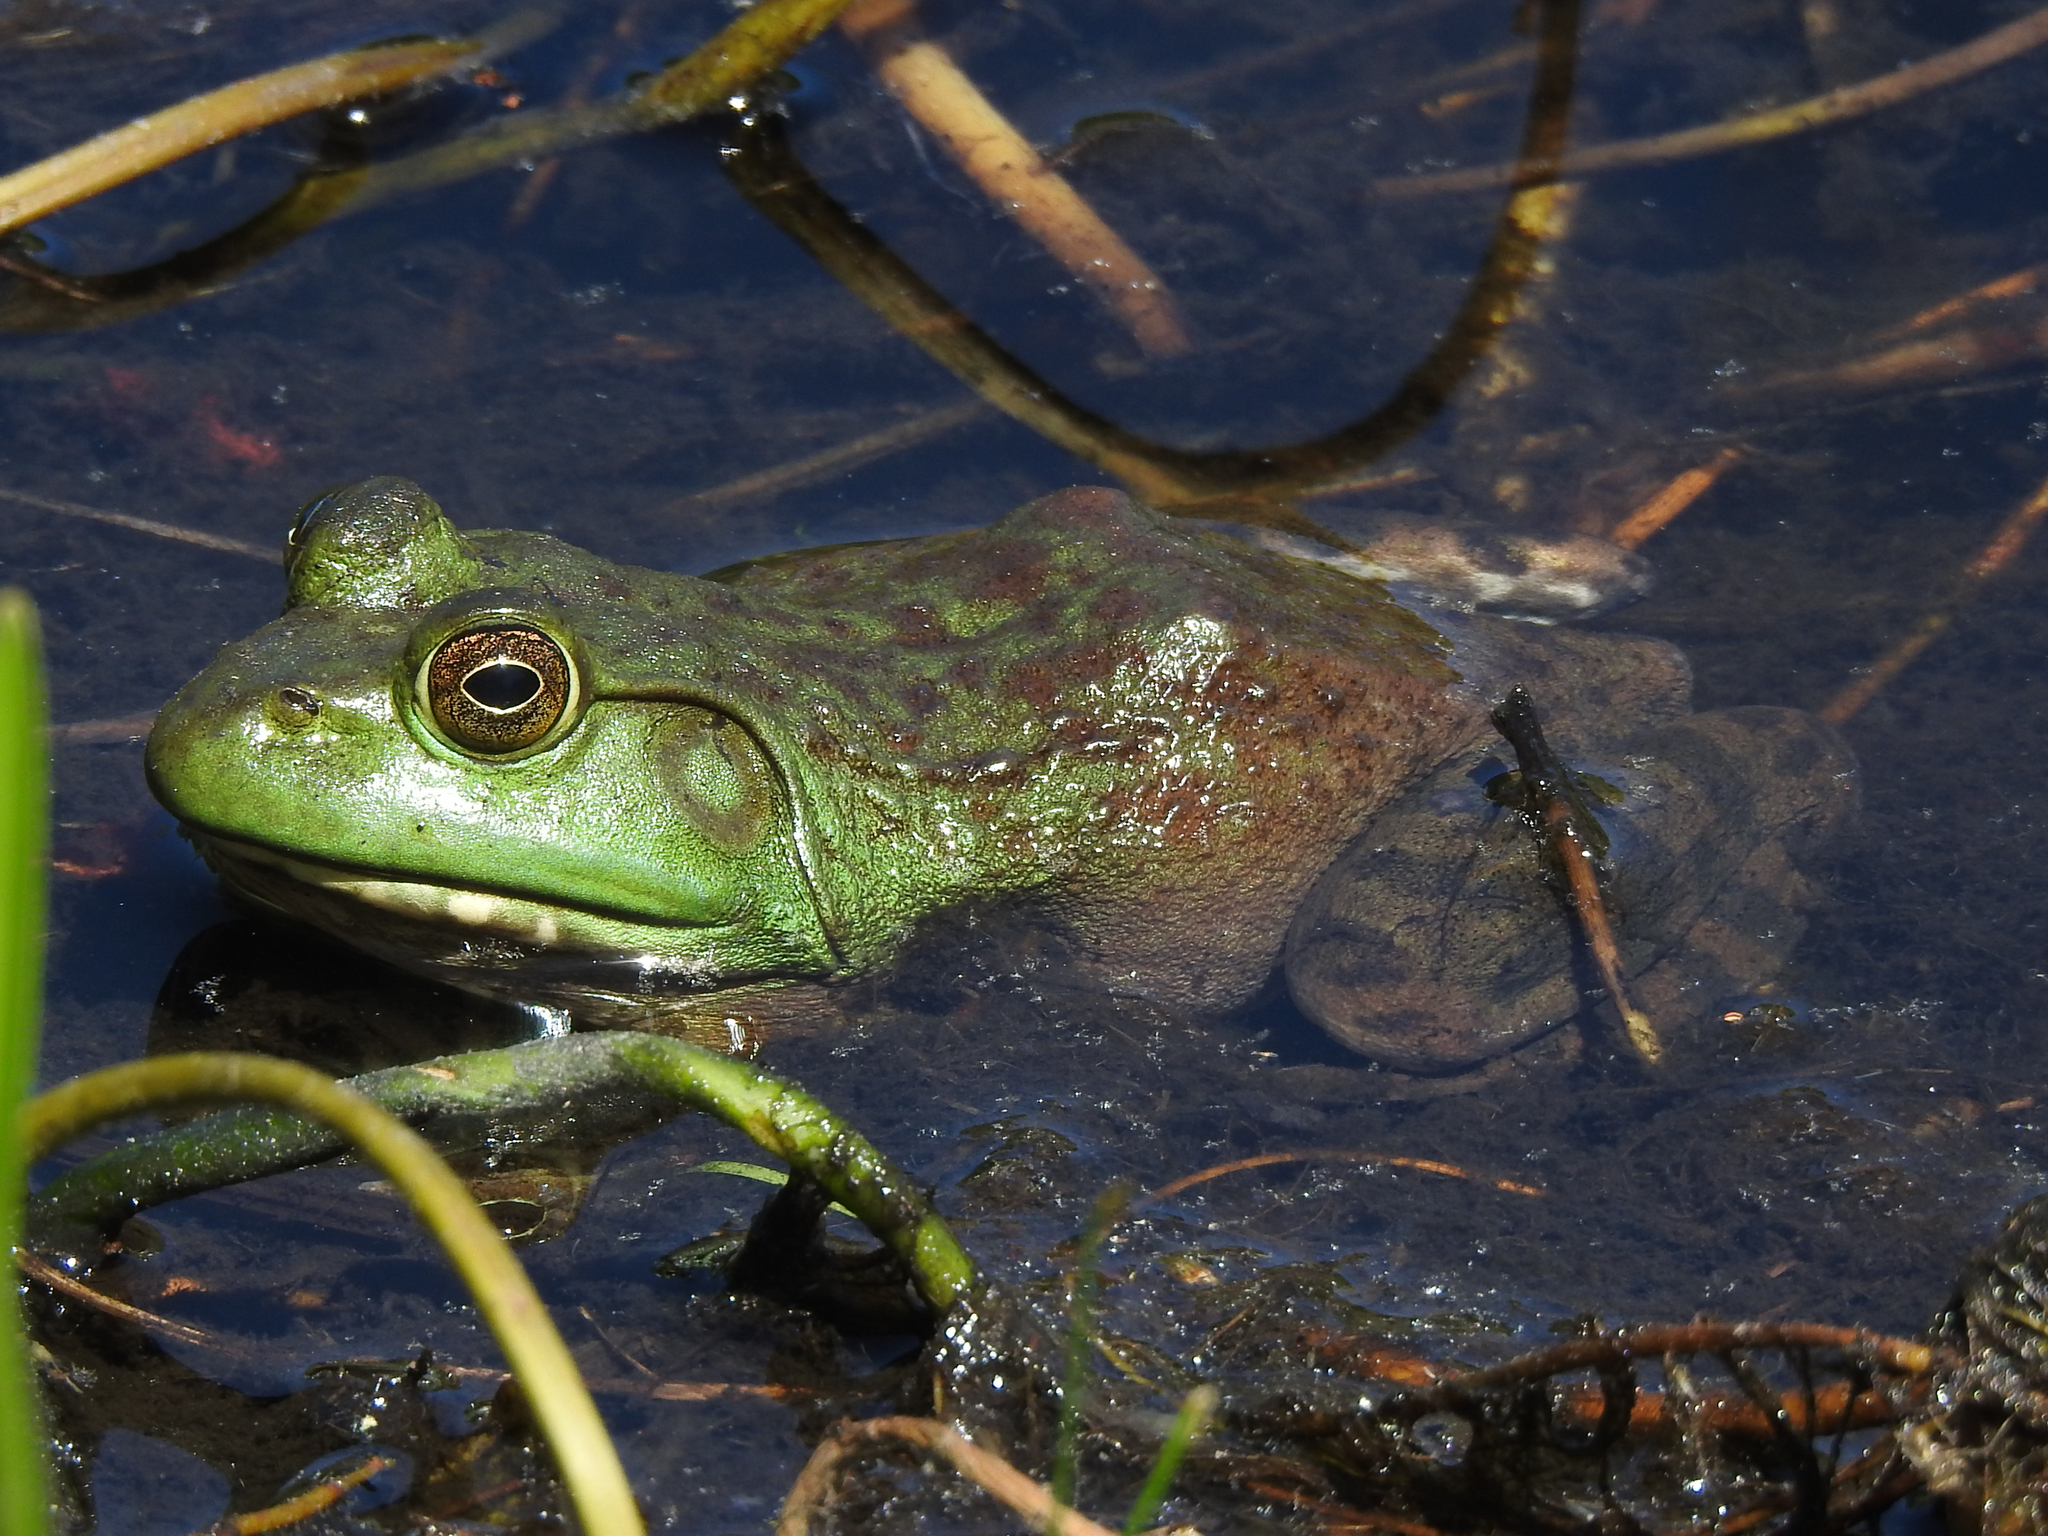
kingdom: Animalia
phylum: Chordata
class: Amphibia
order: Anura
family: Ranidae
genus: Lithobates
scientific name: Lithobates catesbeianus
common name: American bullfrog
